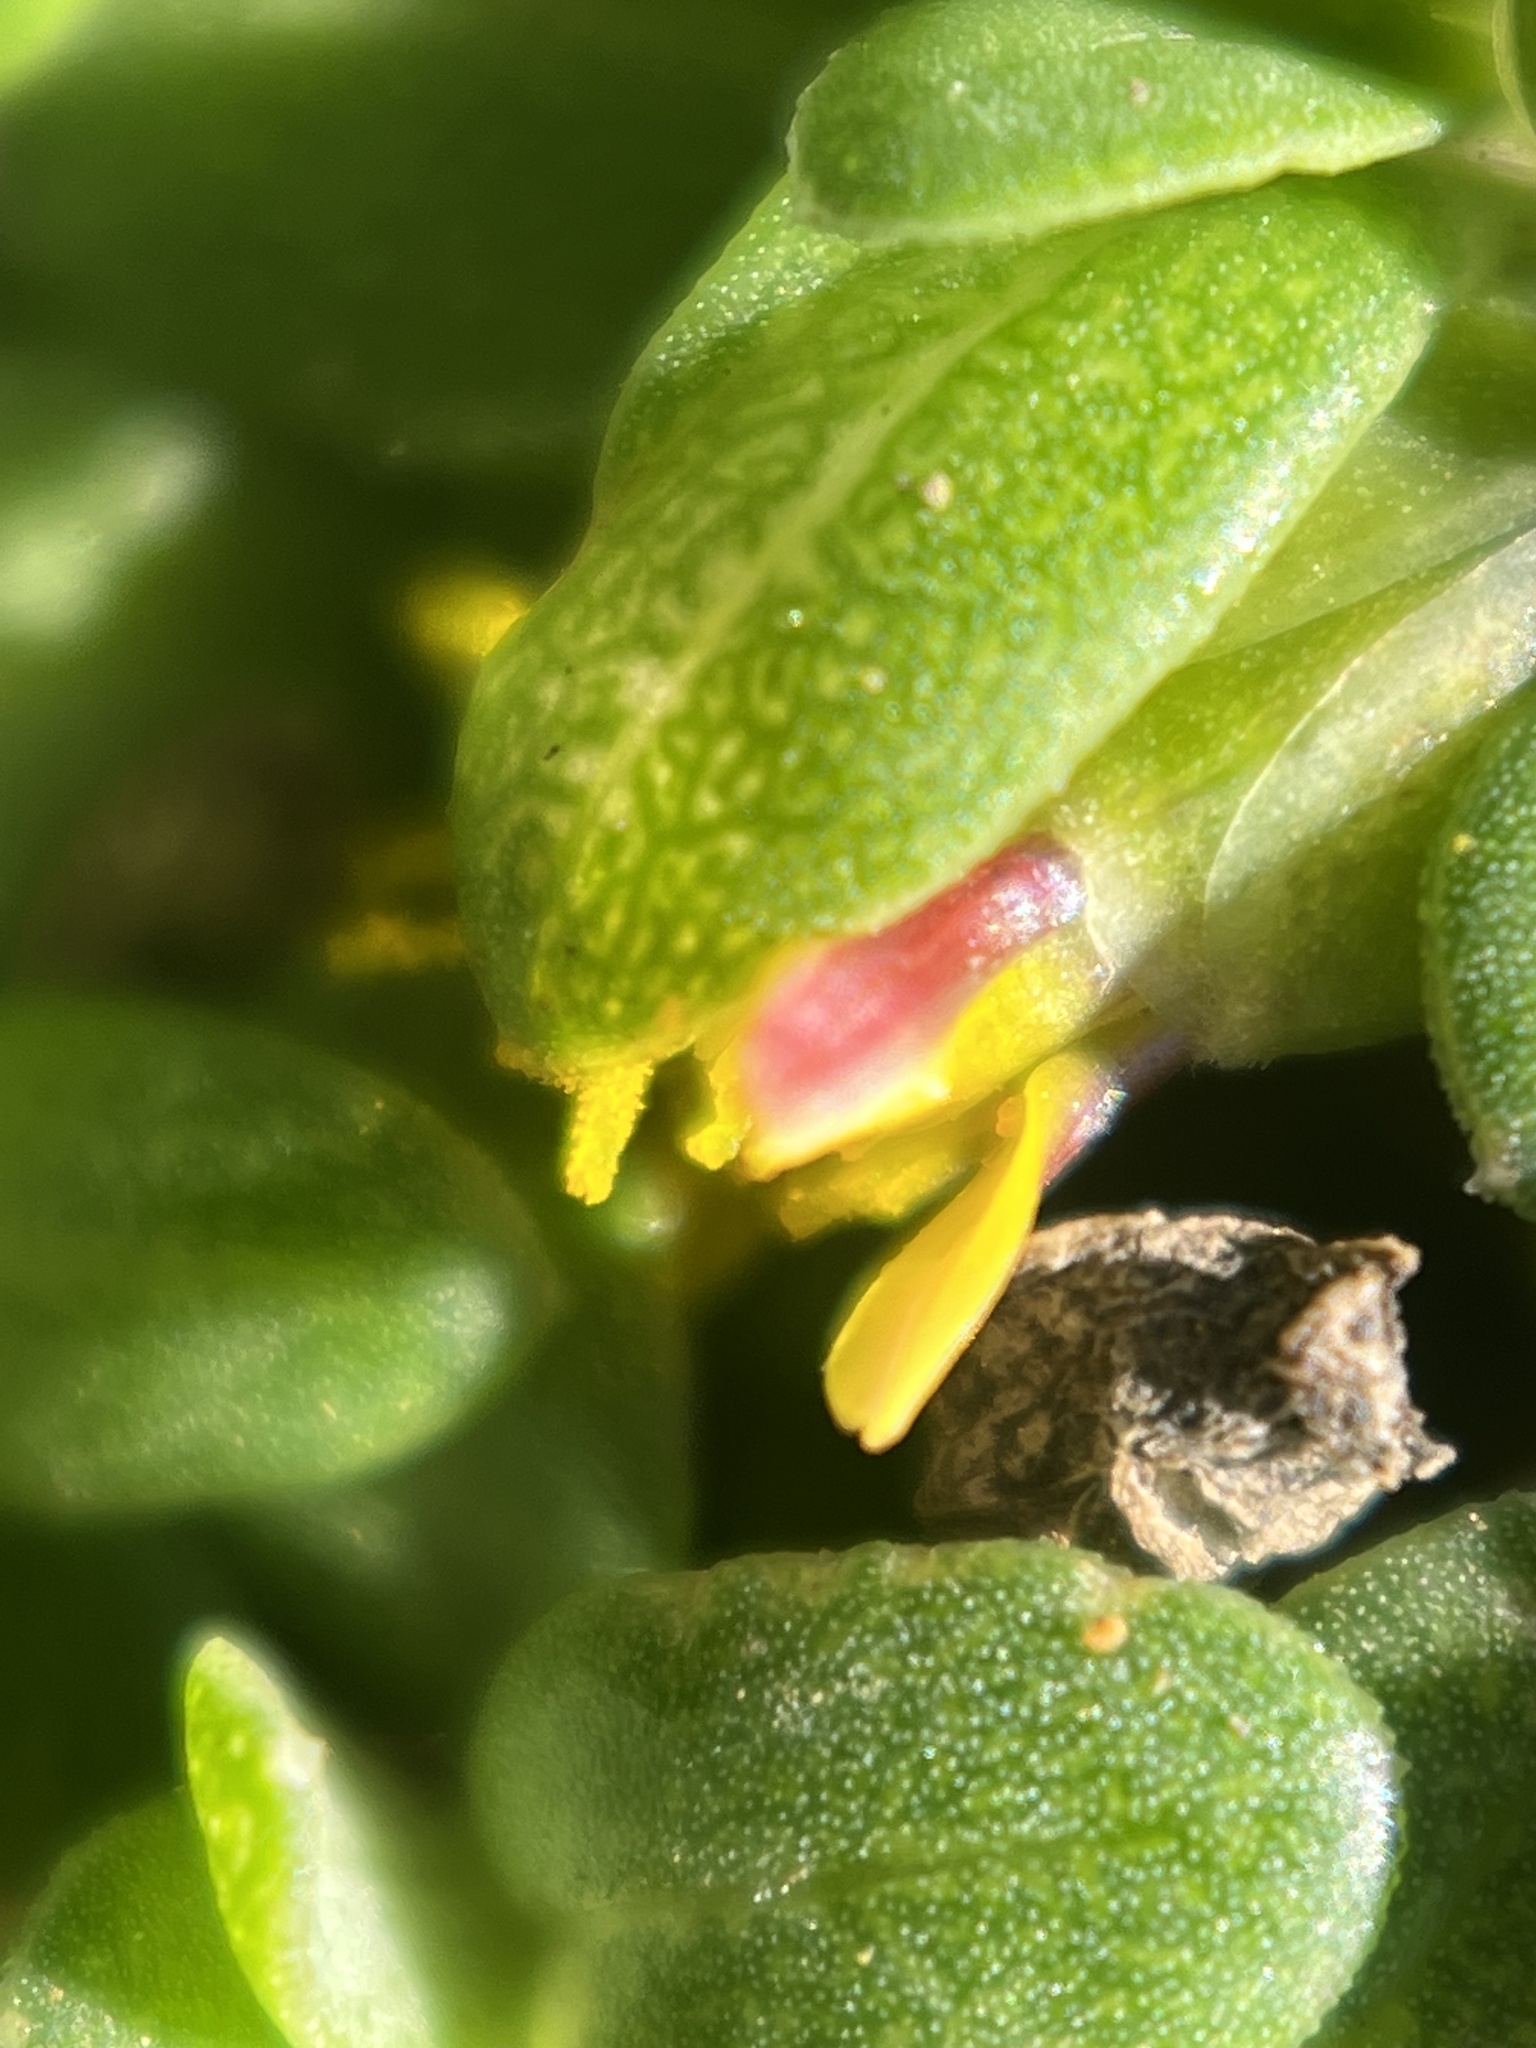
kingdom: Plantae
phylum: Tracheophyta
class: Magnoliopsida
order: Asterales
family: Asteraceae
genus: Pectis
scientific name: Pectis humifusa
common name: Yerba de san juan
